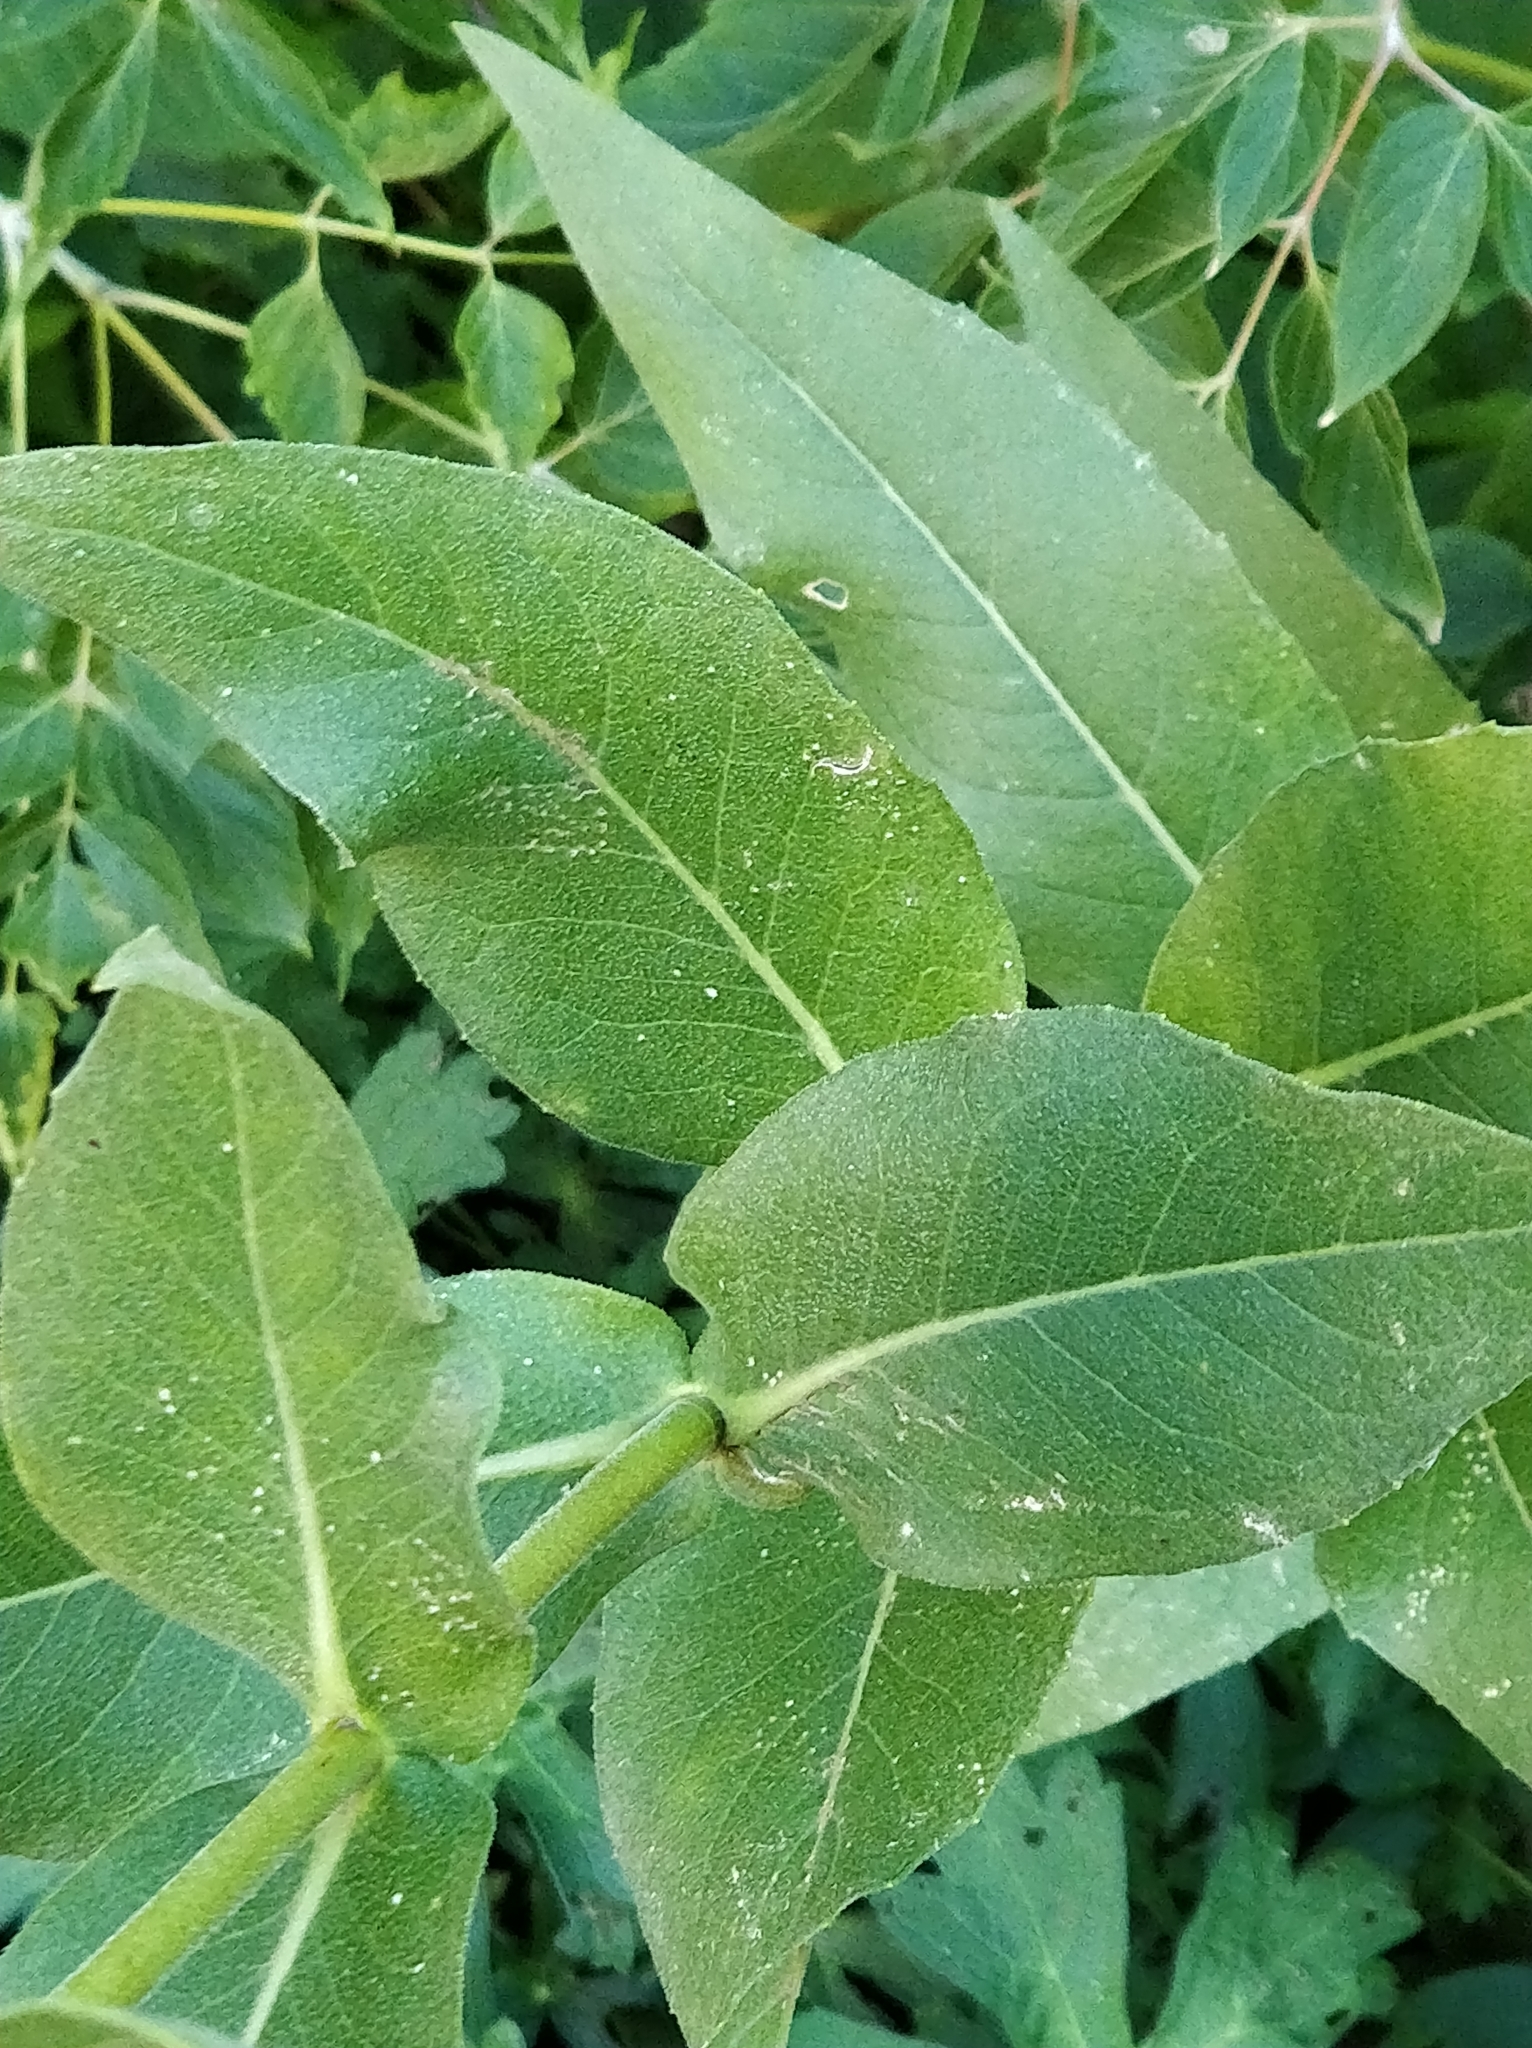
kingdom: Plantae
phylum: Tracheophyta
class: Magnoliopsida
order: Asterales
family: Asteraceae
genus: Silphium
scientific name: Silphium integrifolium
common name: Whole-leaf rosinweed
